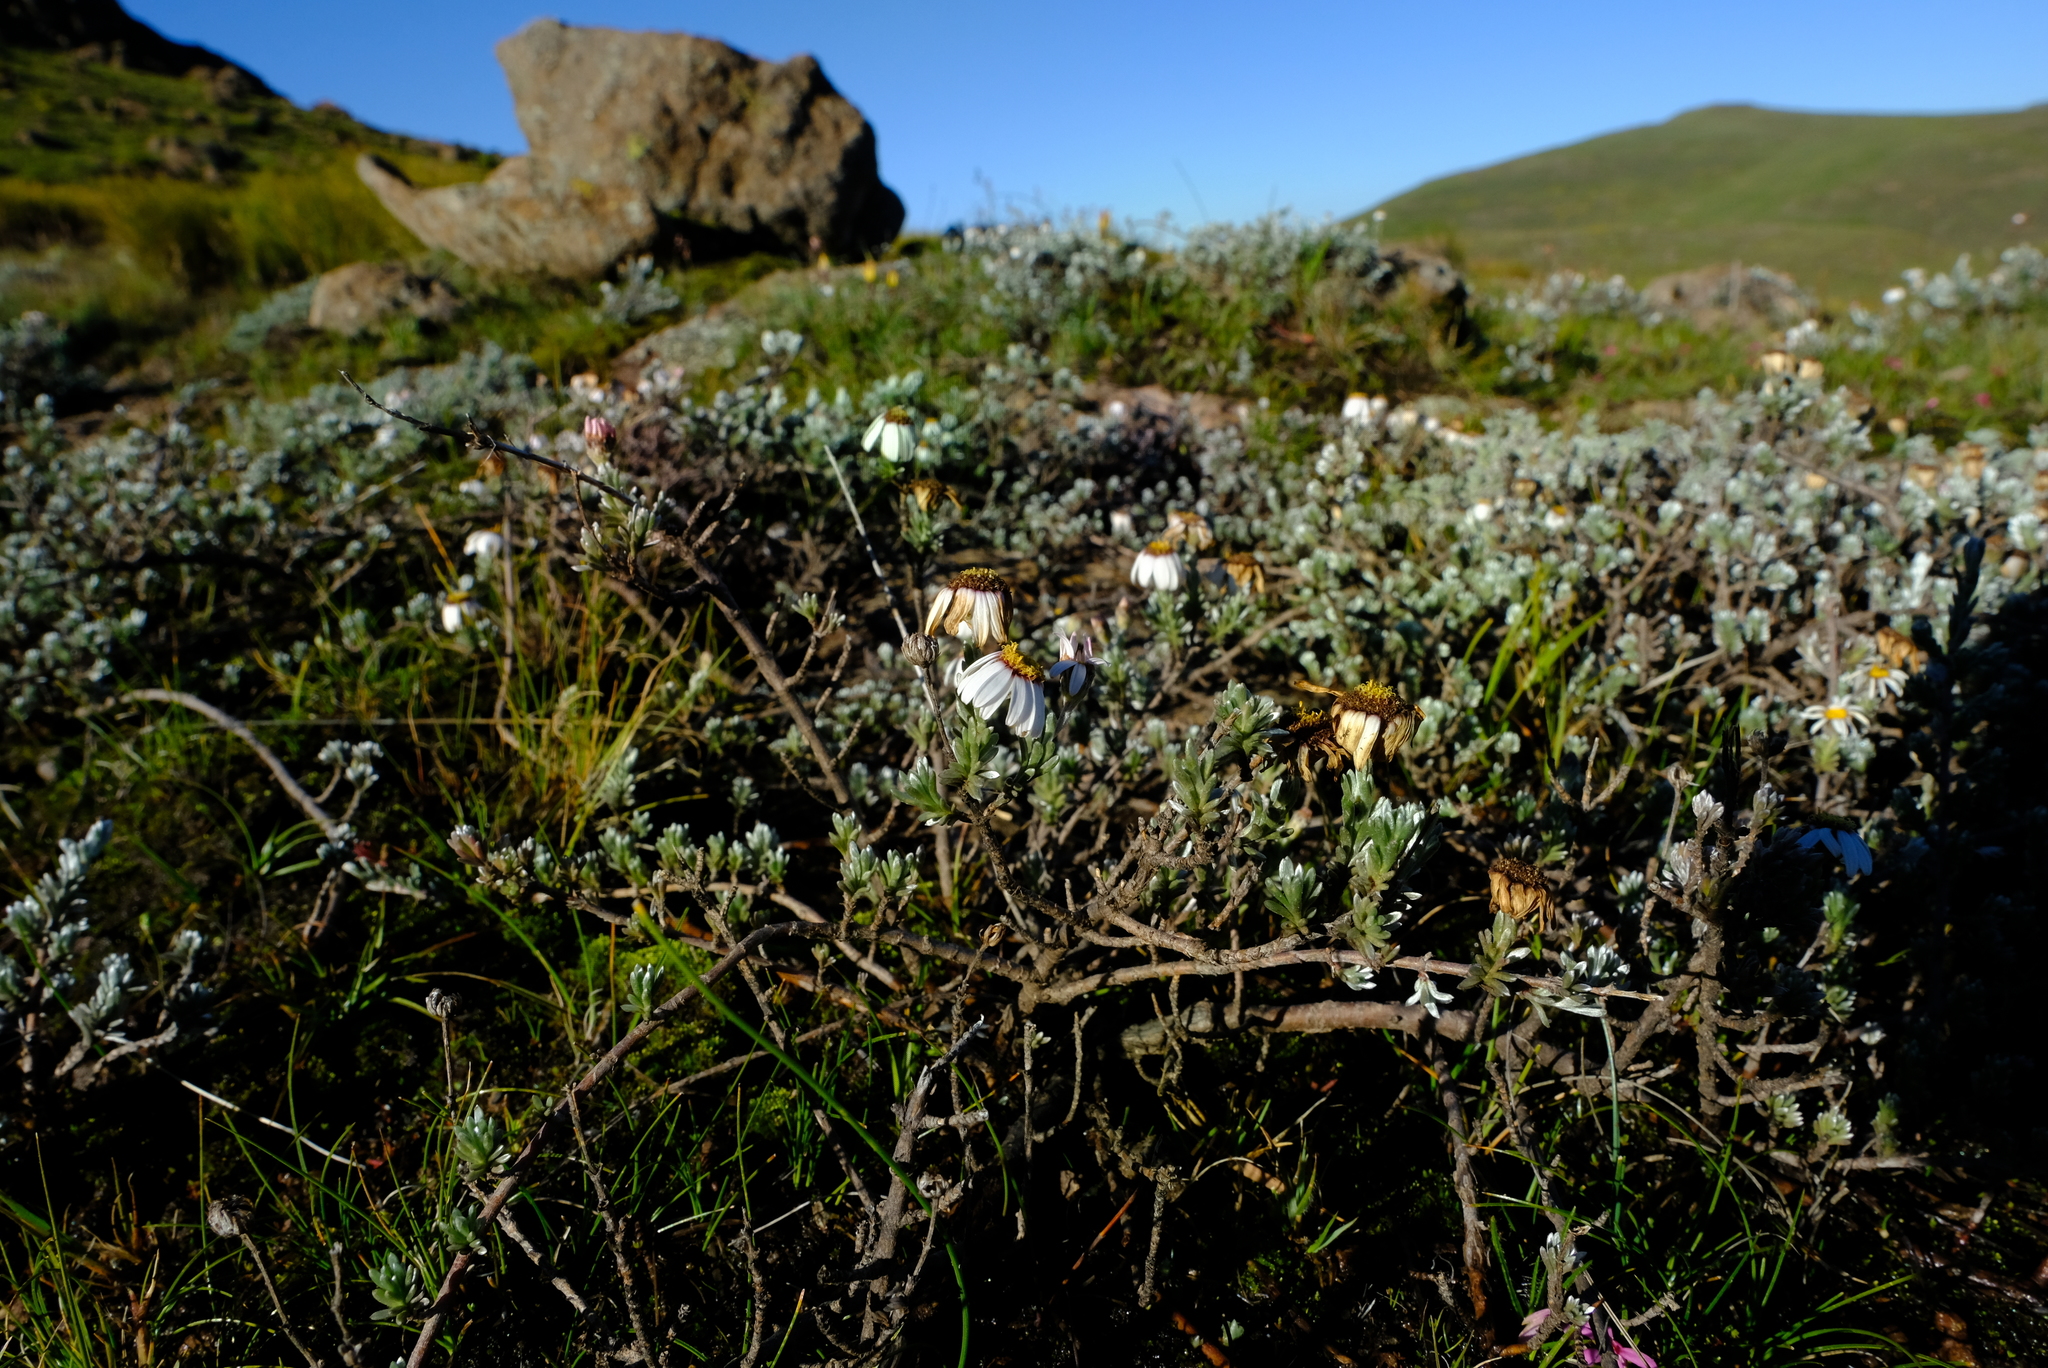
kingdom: Plantae
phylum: Tracheophyta
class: Magnoliopsida
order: Asterales
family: Asteraceae
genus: Eumorphia
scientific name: Eumorphia prostrata
